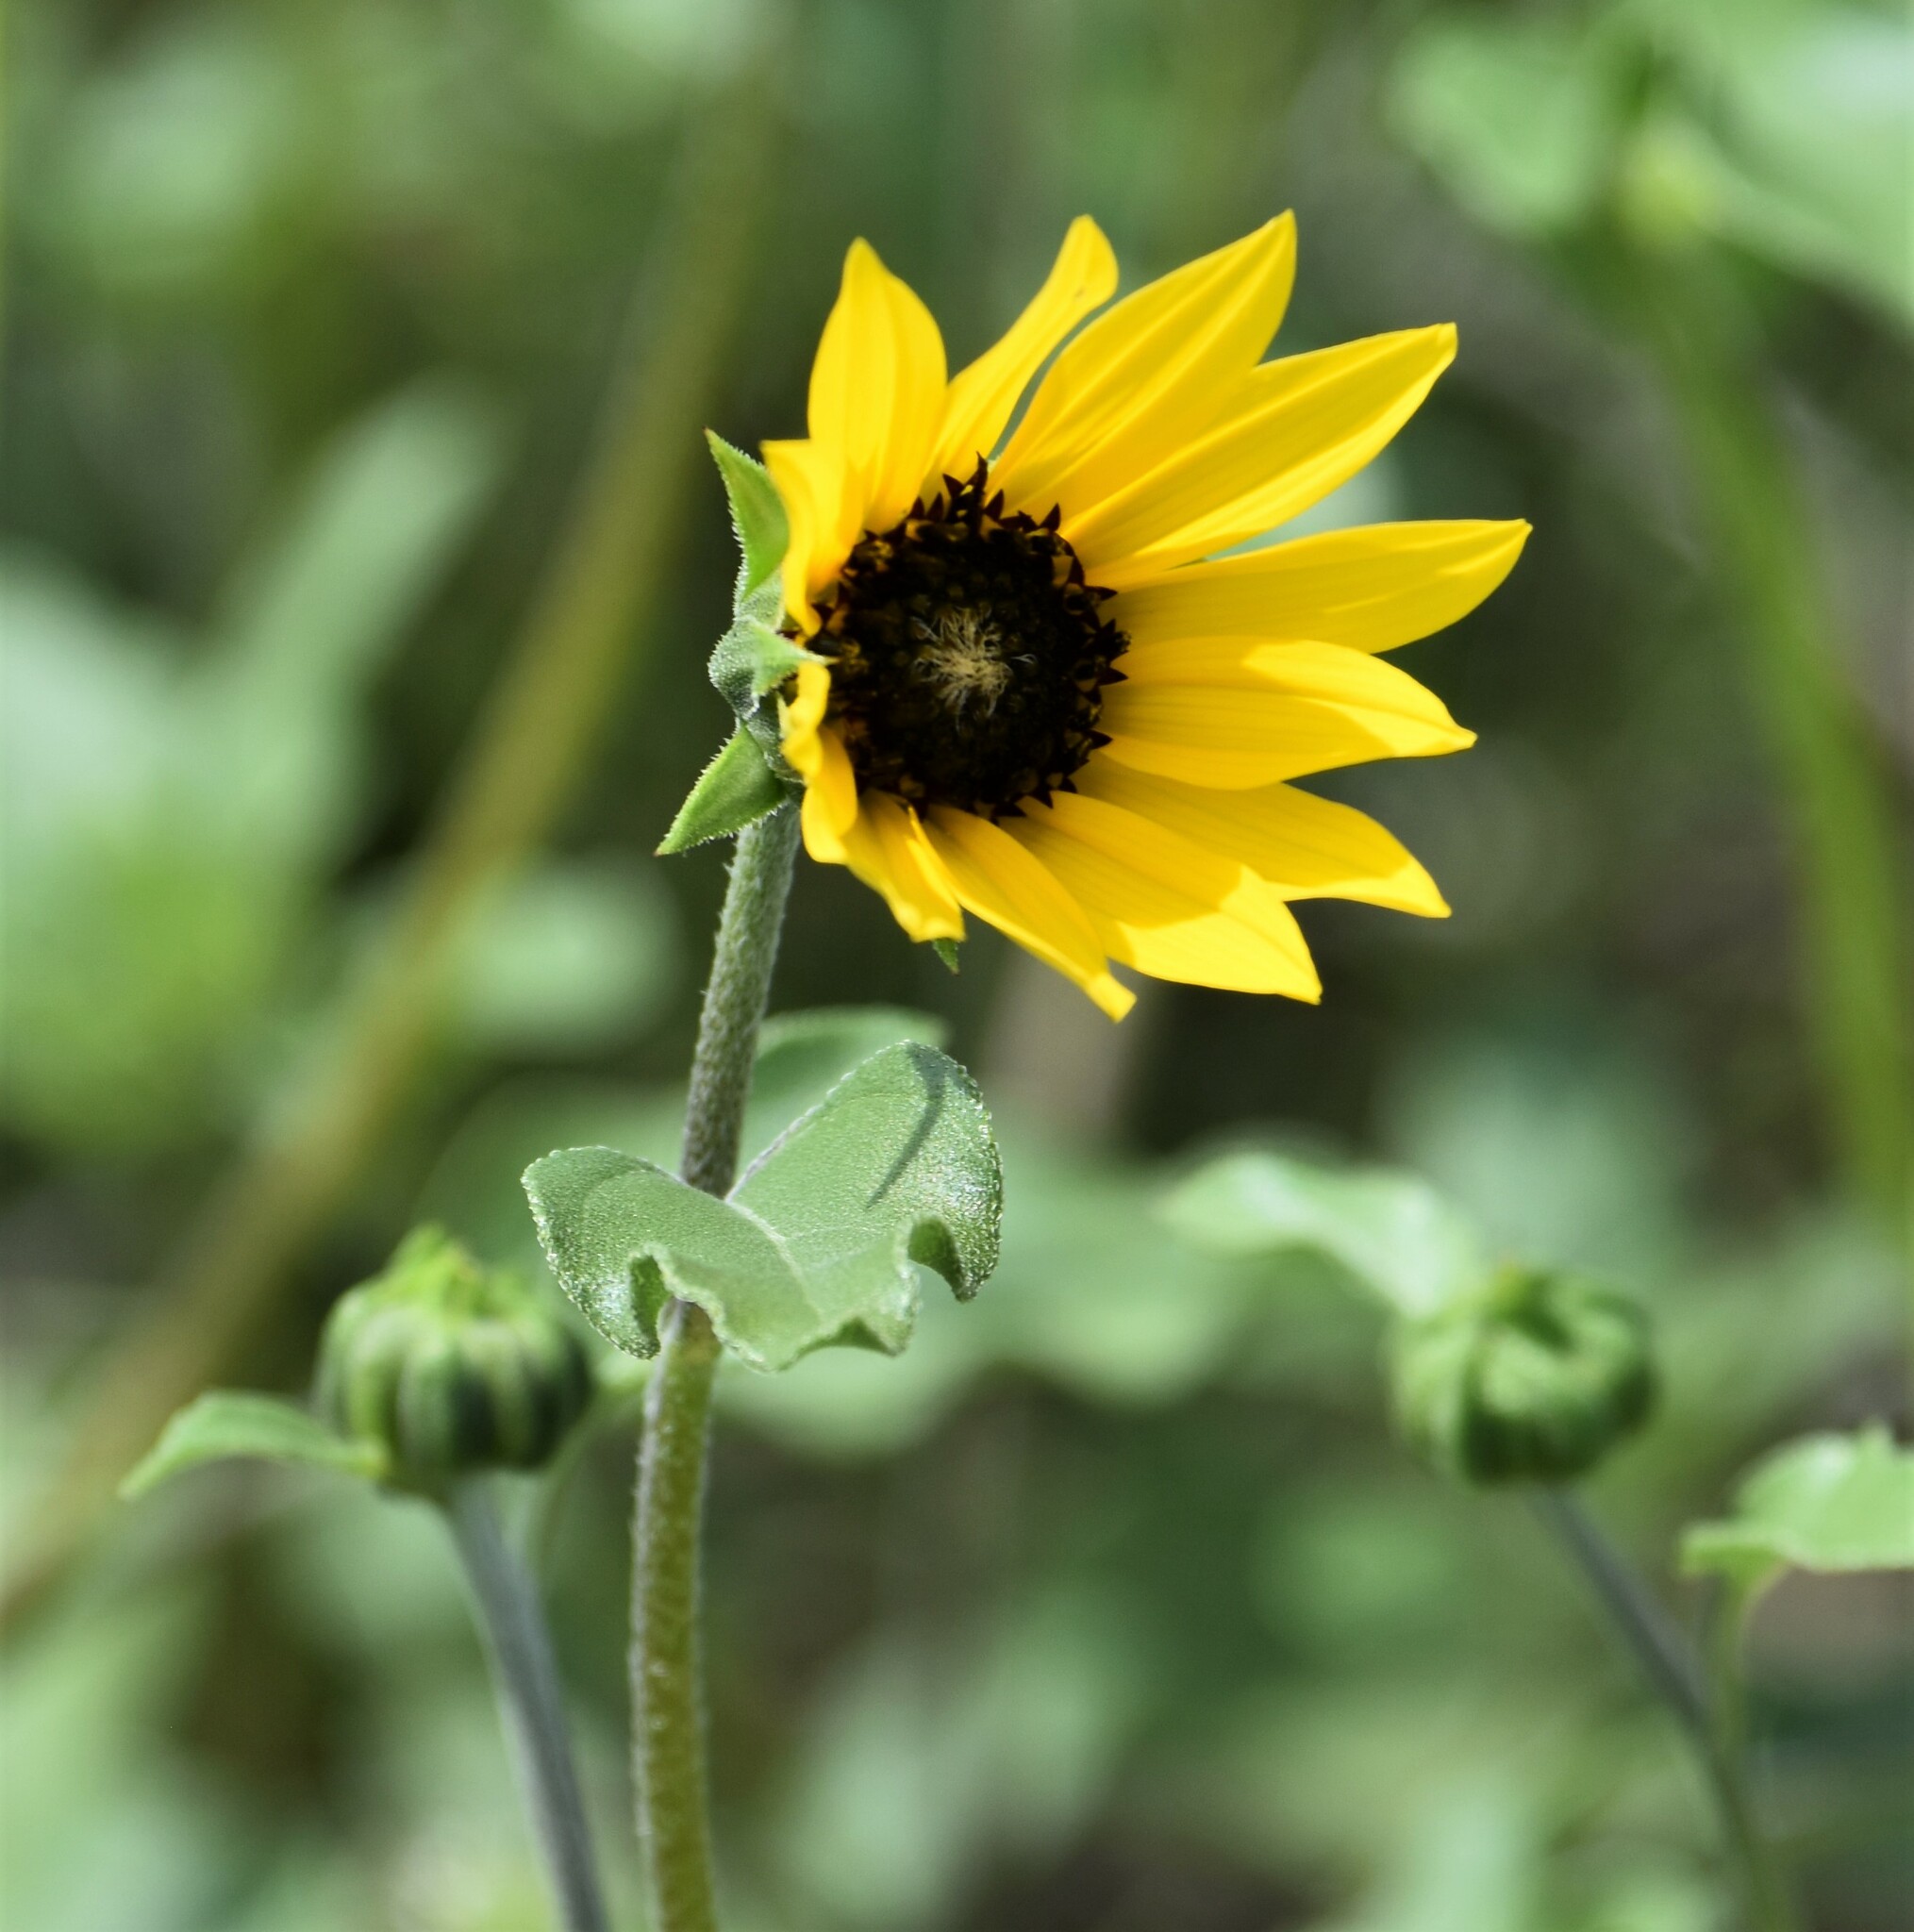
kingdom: Plantae
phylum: Tracheophyta
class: Magnoliopsida
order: Asterales
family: Asteraceae
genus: Helianthus
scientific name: Helianthus petiolaris
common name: Lesser sunflower
